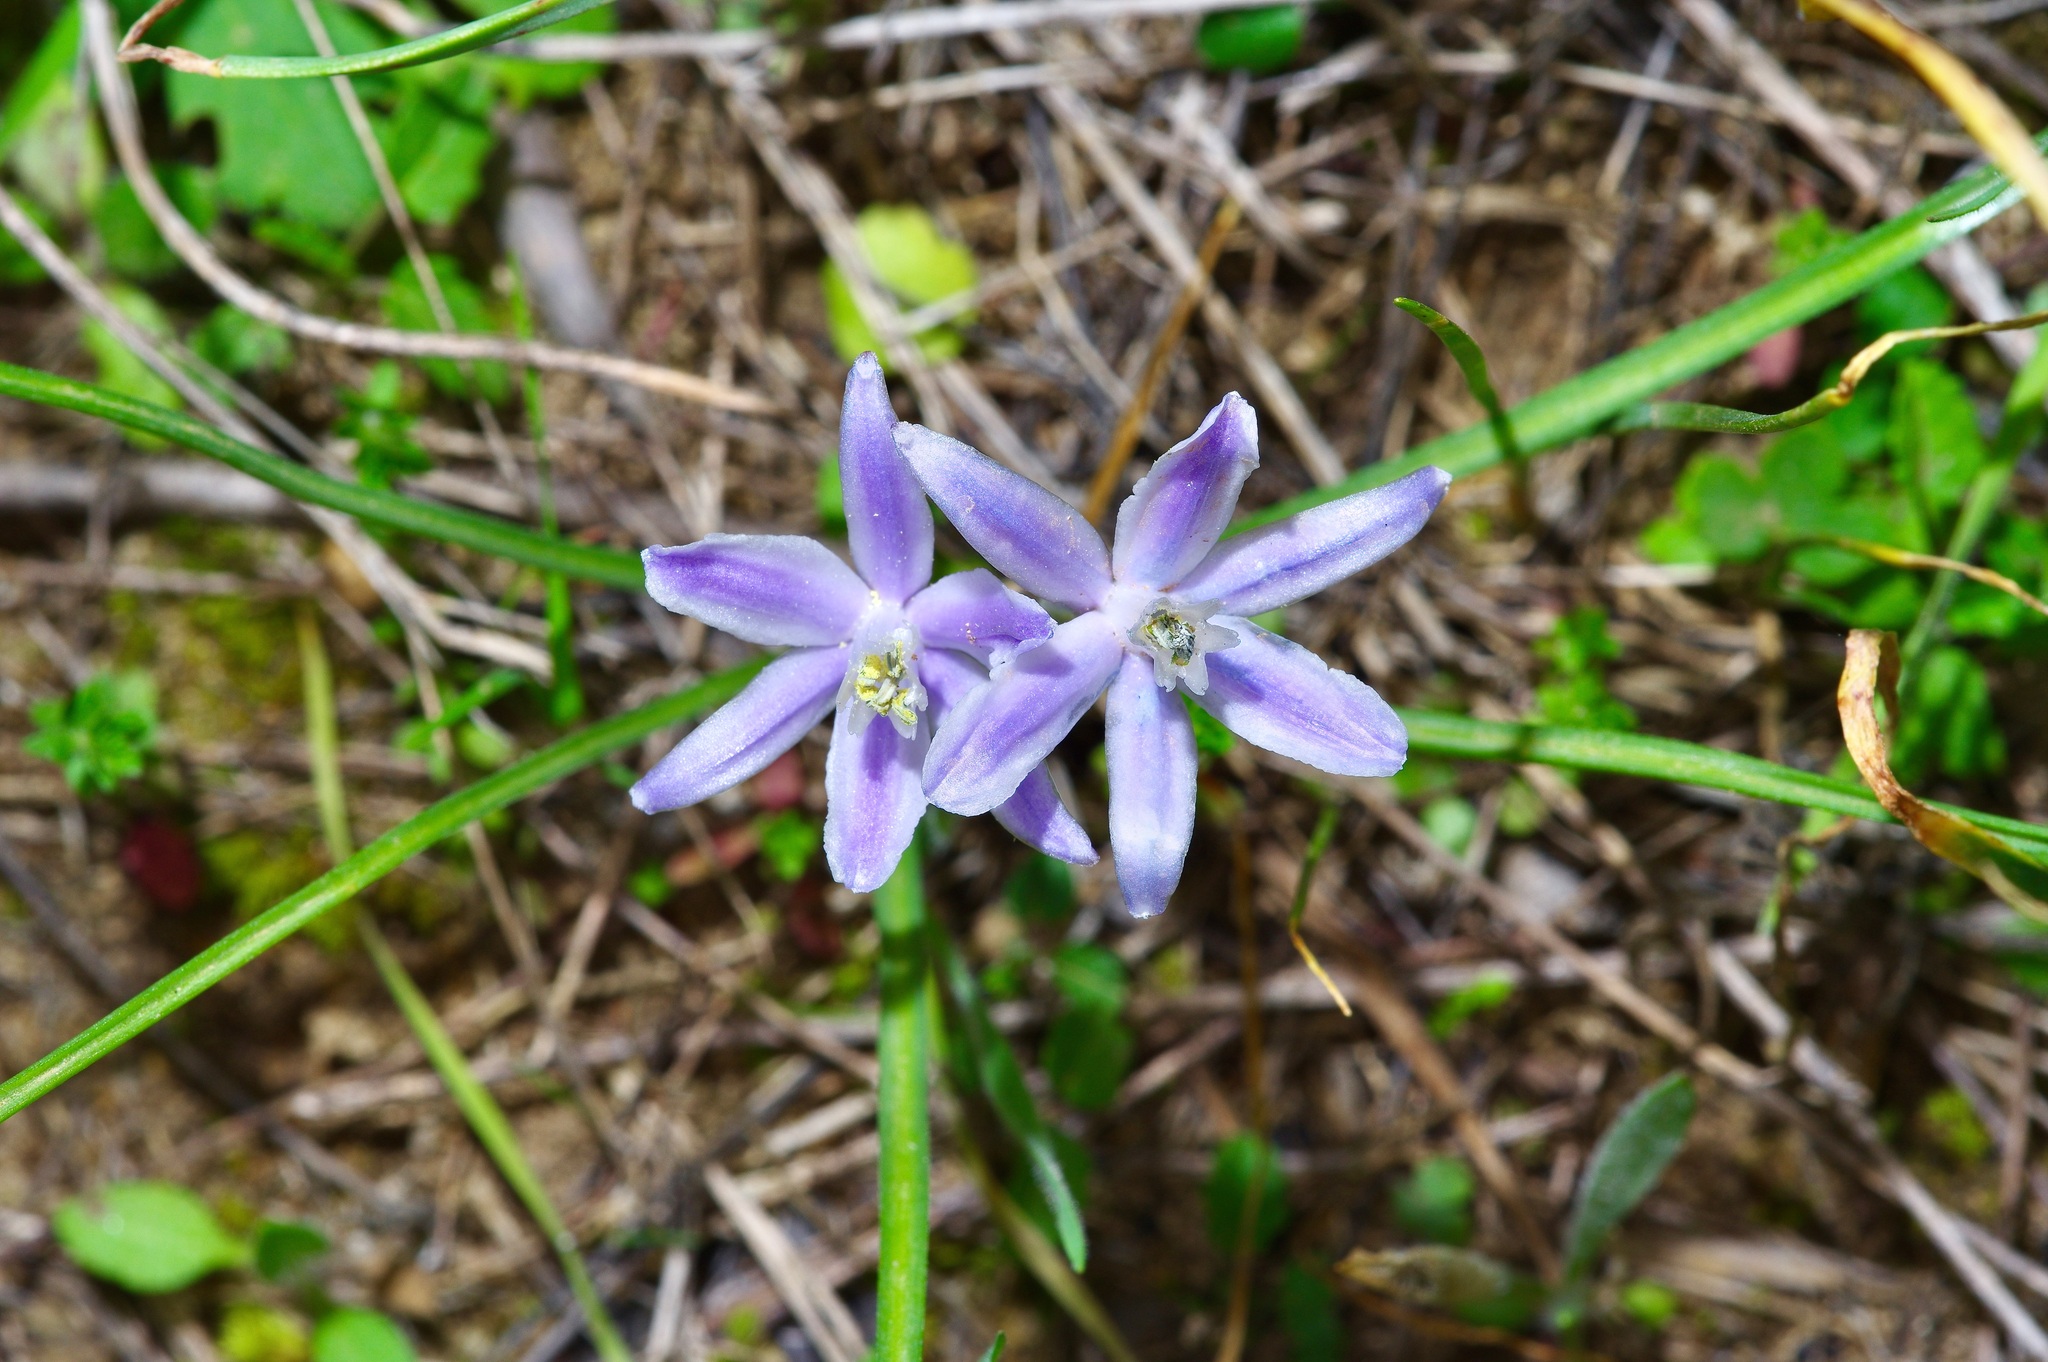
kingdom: Plantae
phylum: Tracheophyta
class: Liliopsida
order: Asparagales
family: Asparagaceae
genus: Androstephium
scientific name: Androstephium coeruleum
